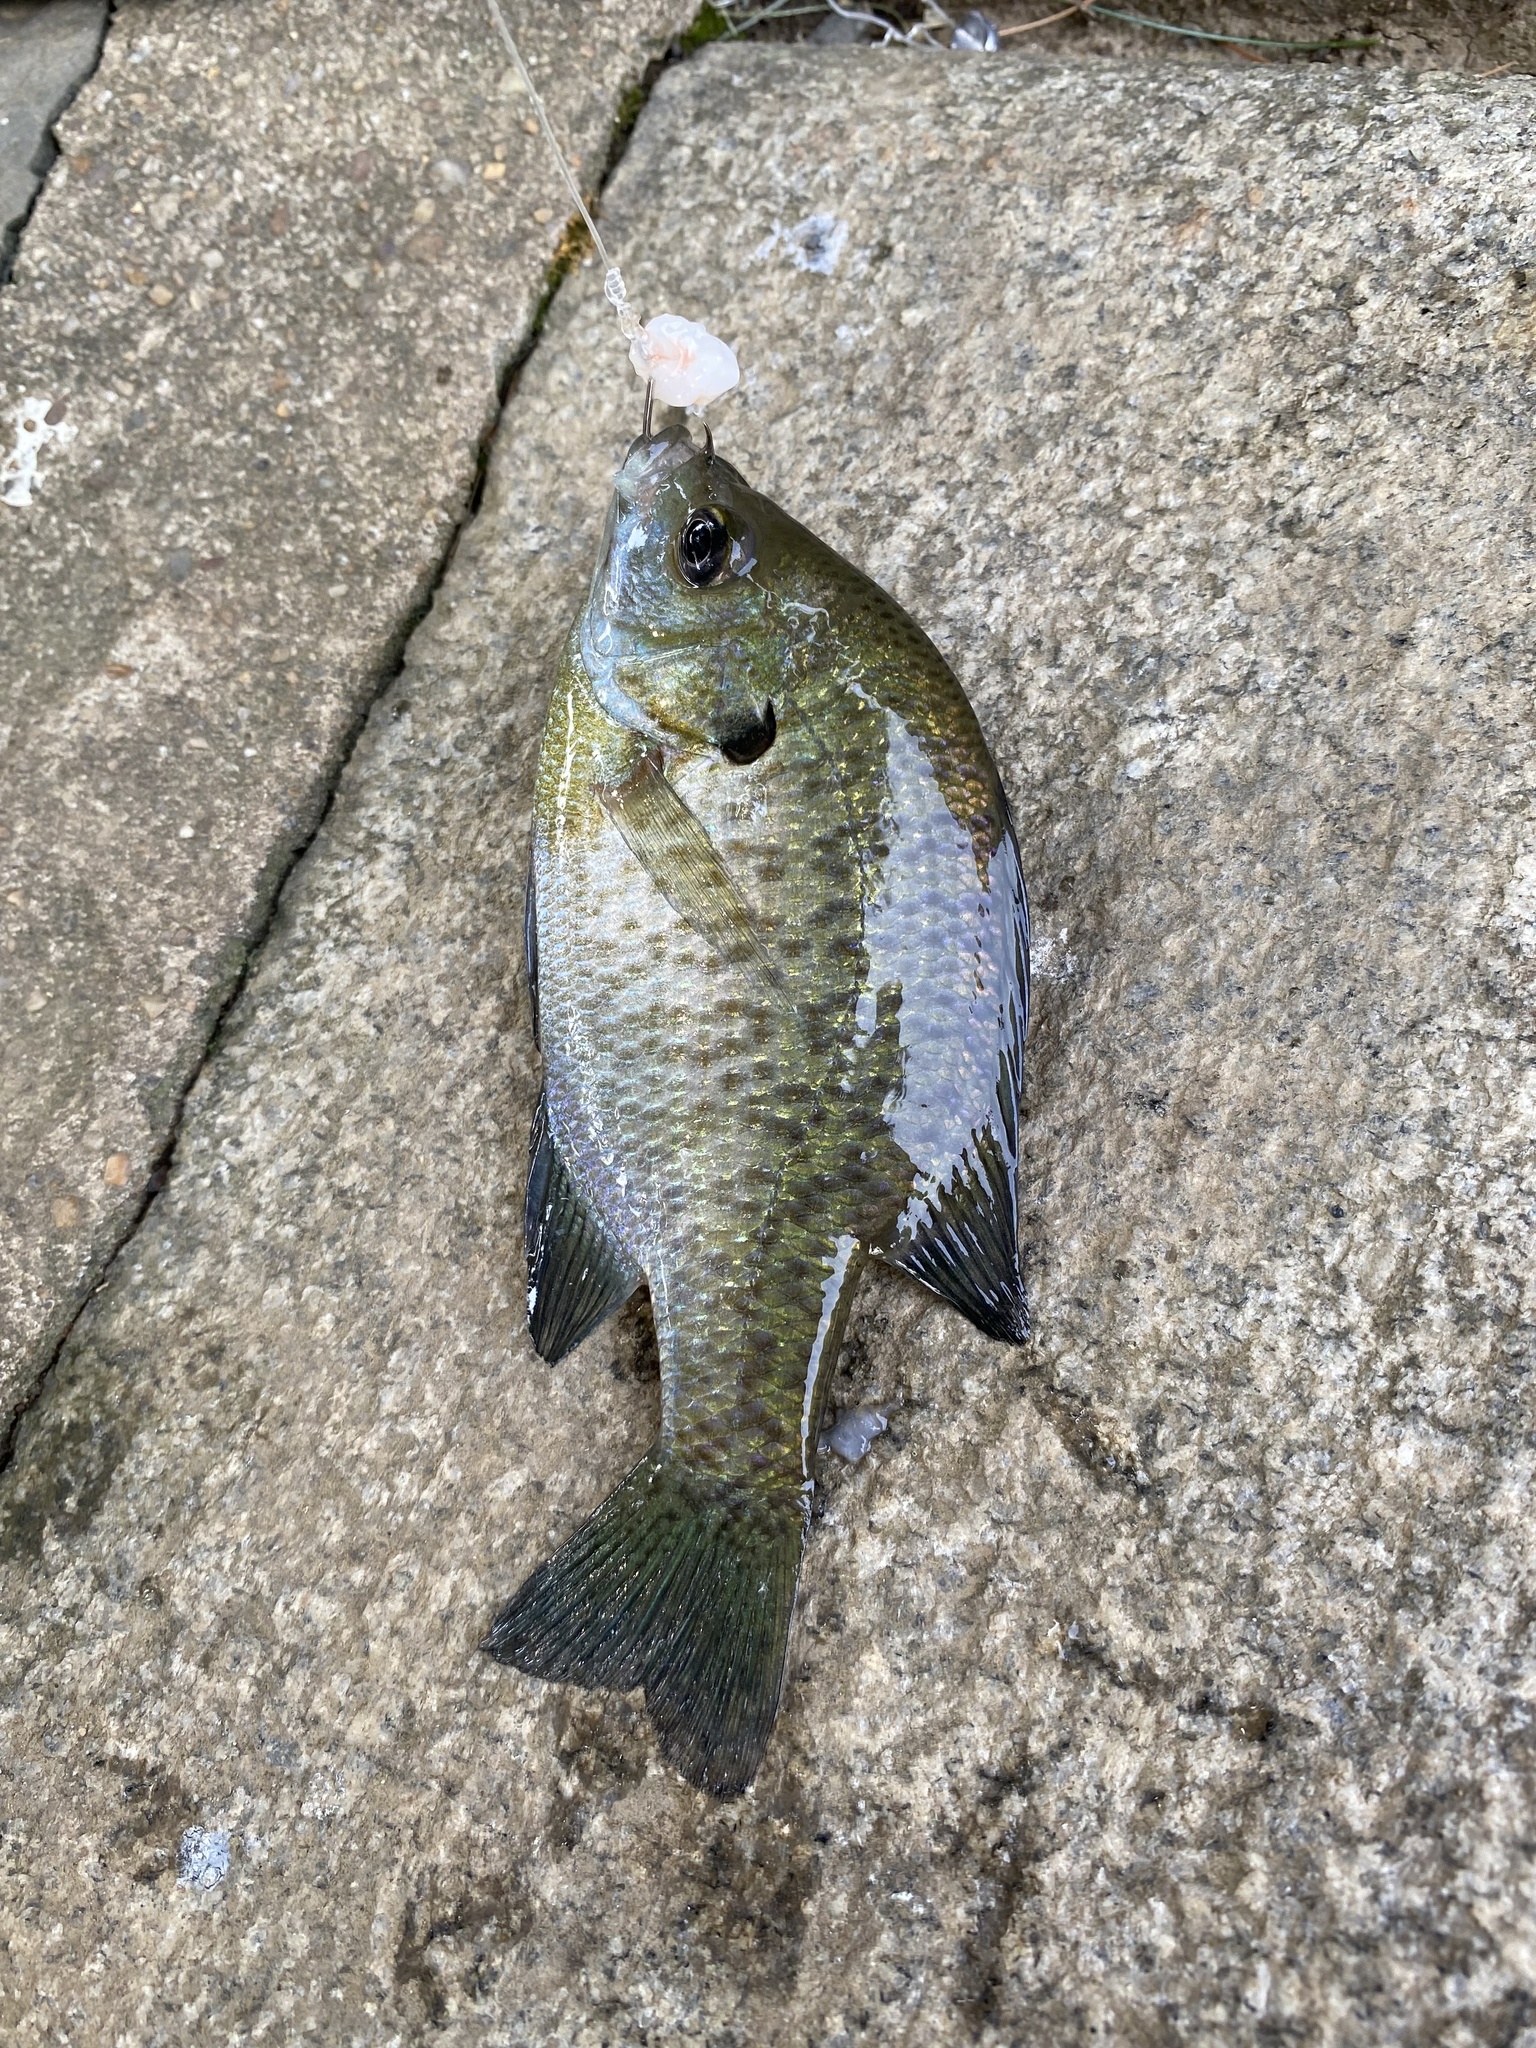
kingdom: Animalia
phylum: Chordata
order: Perciformes
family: Centrarchidae
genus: Lepomis
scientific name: Lepomis macrochirus
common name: Bluegill
